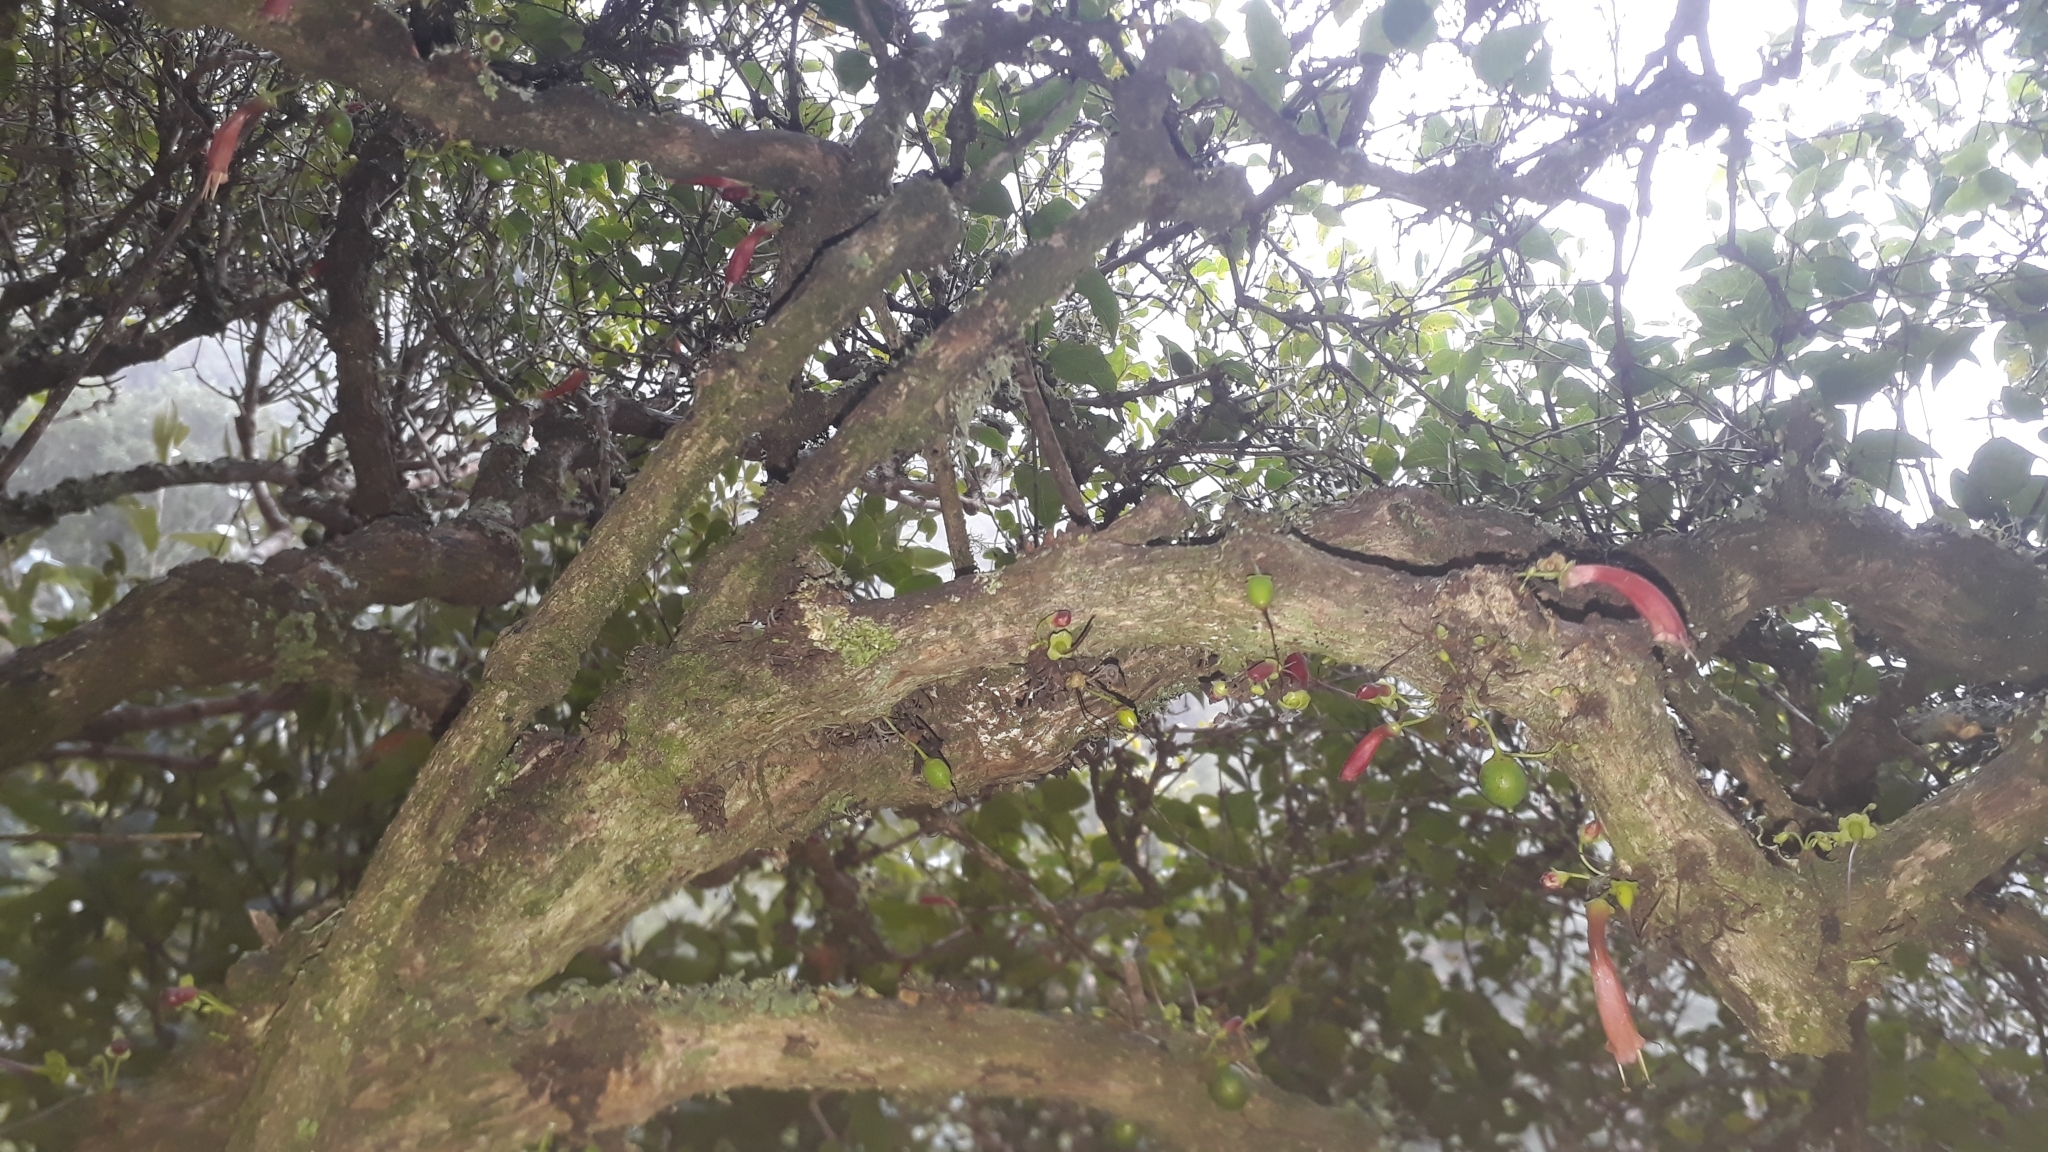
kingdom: Plantae
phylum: Tracheophyta
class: Magnoliopsida
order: Lamiales
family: Stilbaceae
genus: Halleria
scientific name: Halleria lucida
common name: Tree fuschia
